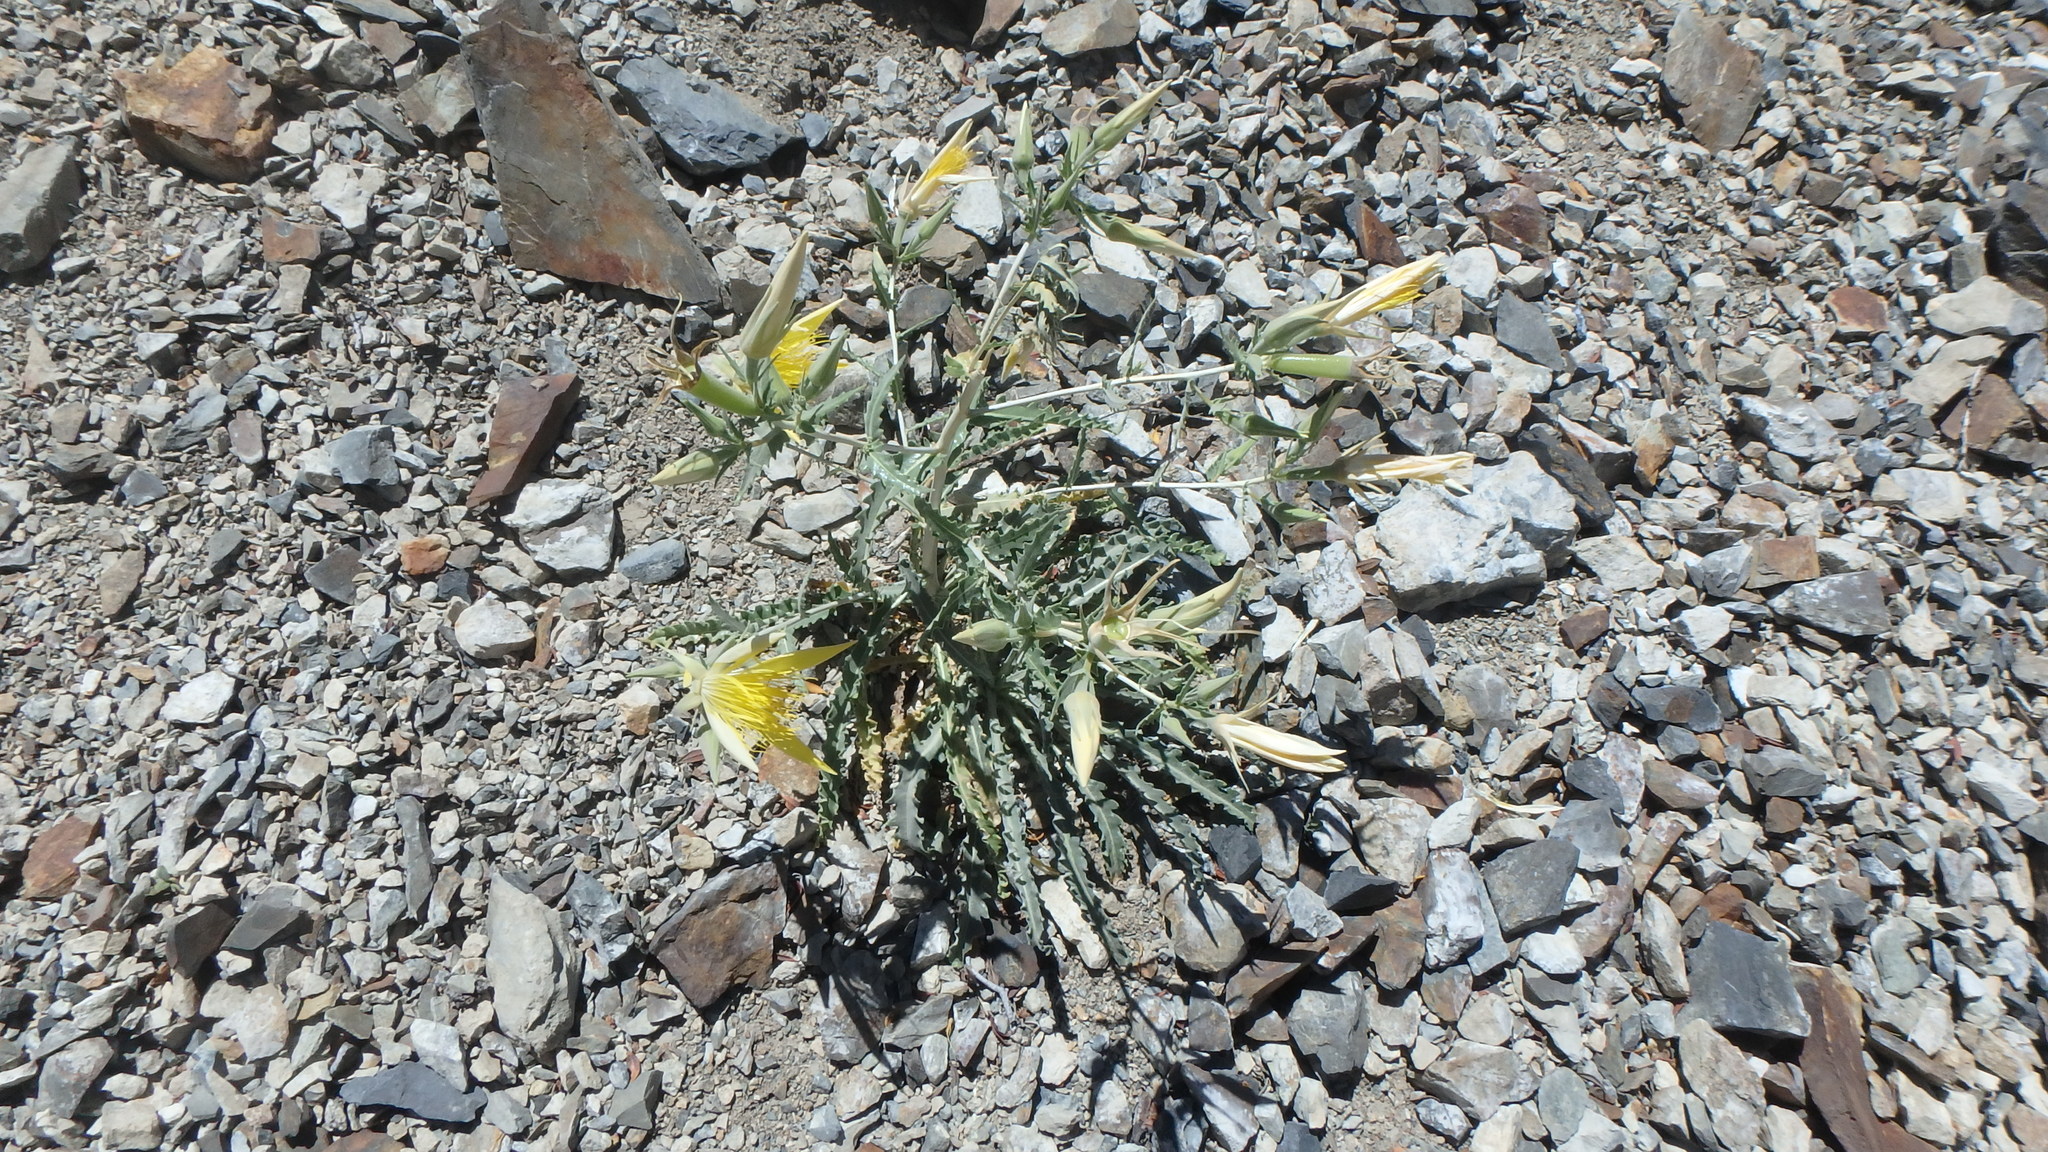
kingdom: Plantae
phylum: Tracheophyta
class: Magnoliopsida
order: Cornales
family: Loasaceae
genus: Mentzelia
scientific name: Mentzelia laevicaulis
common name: Smooth-stem blazingstar
